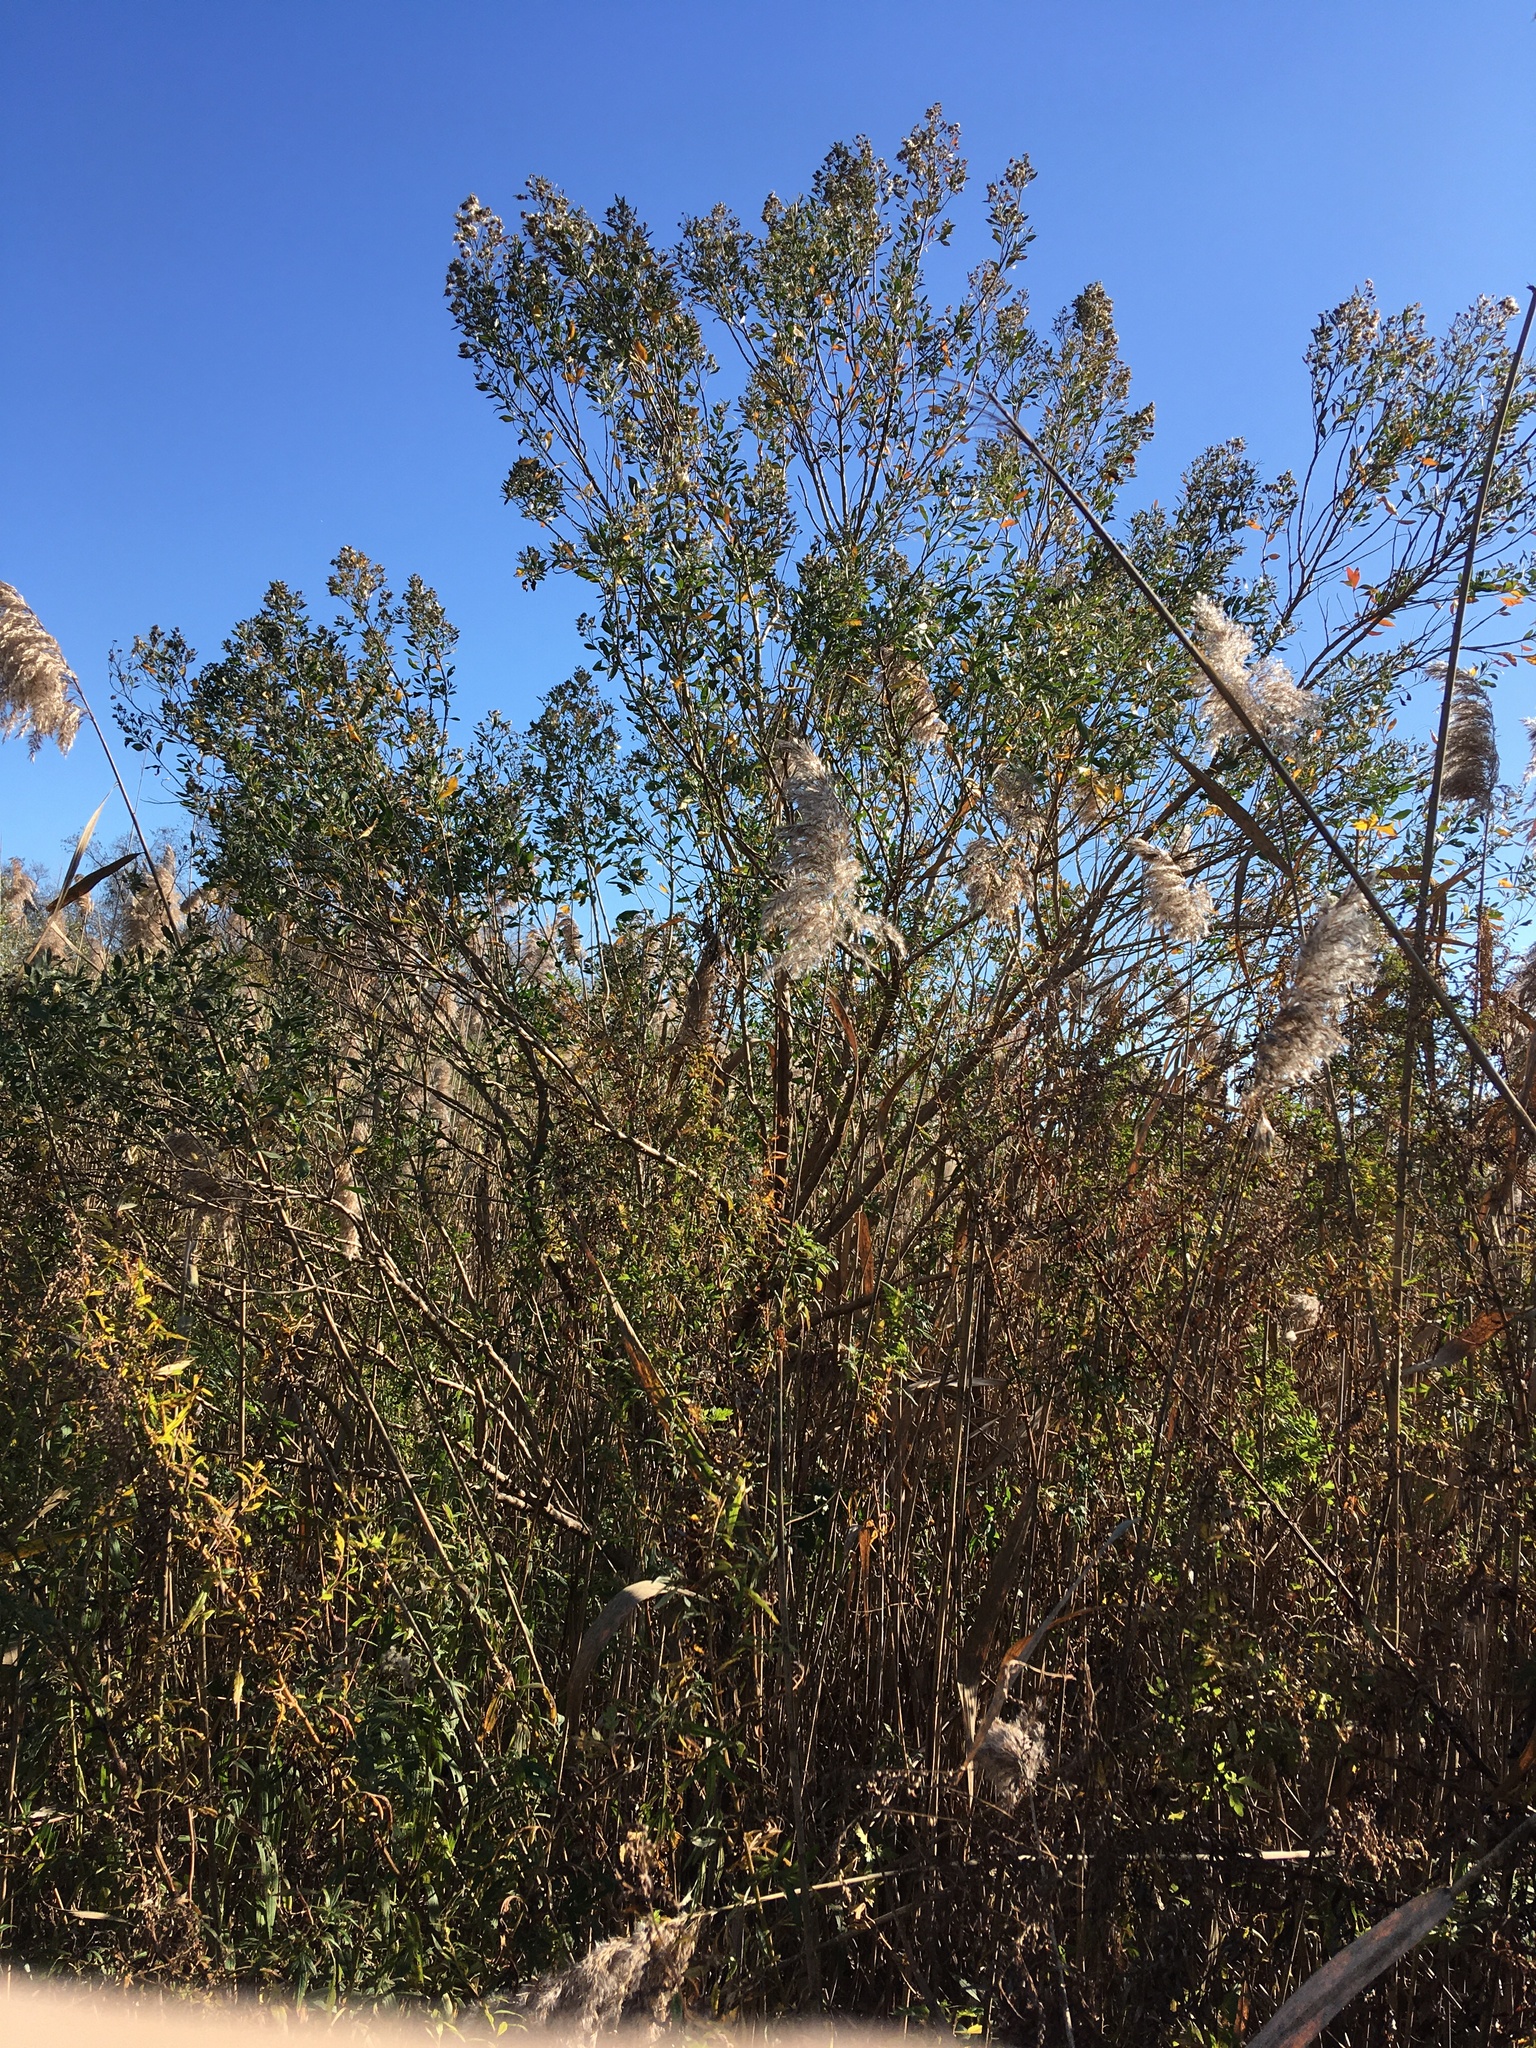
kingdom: Plantae
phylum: Tracheophyta
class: Magnoliopsida
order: Asterales
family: Asteraceae
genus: Baccharis
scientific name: Baccharis halimifolia
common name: Eastern baccharis
